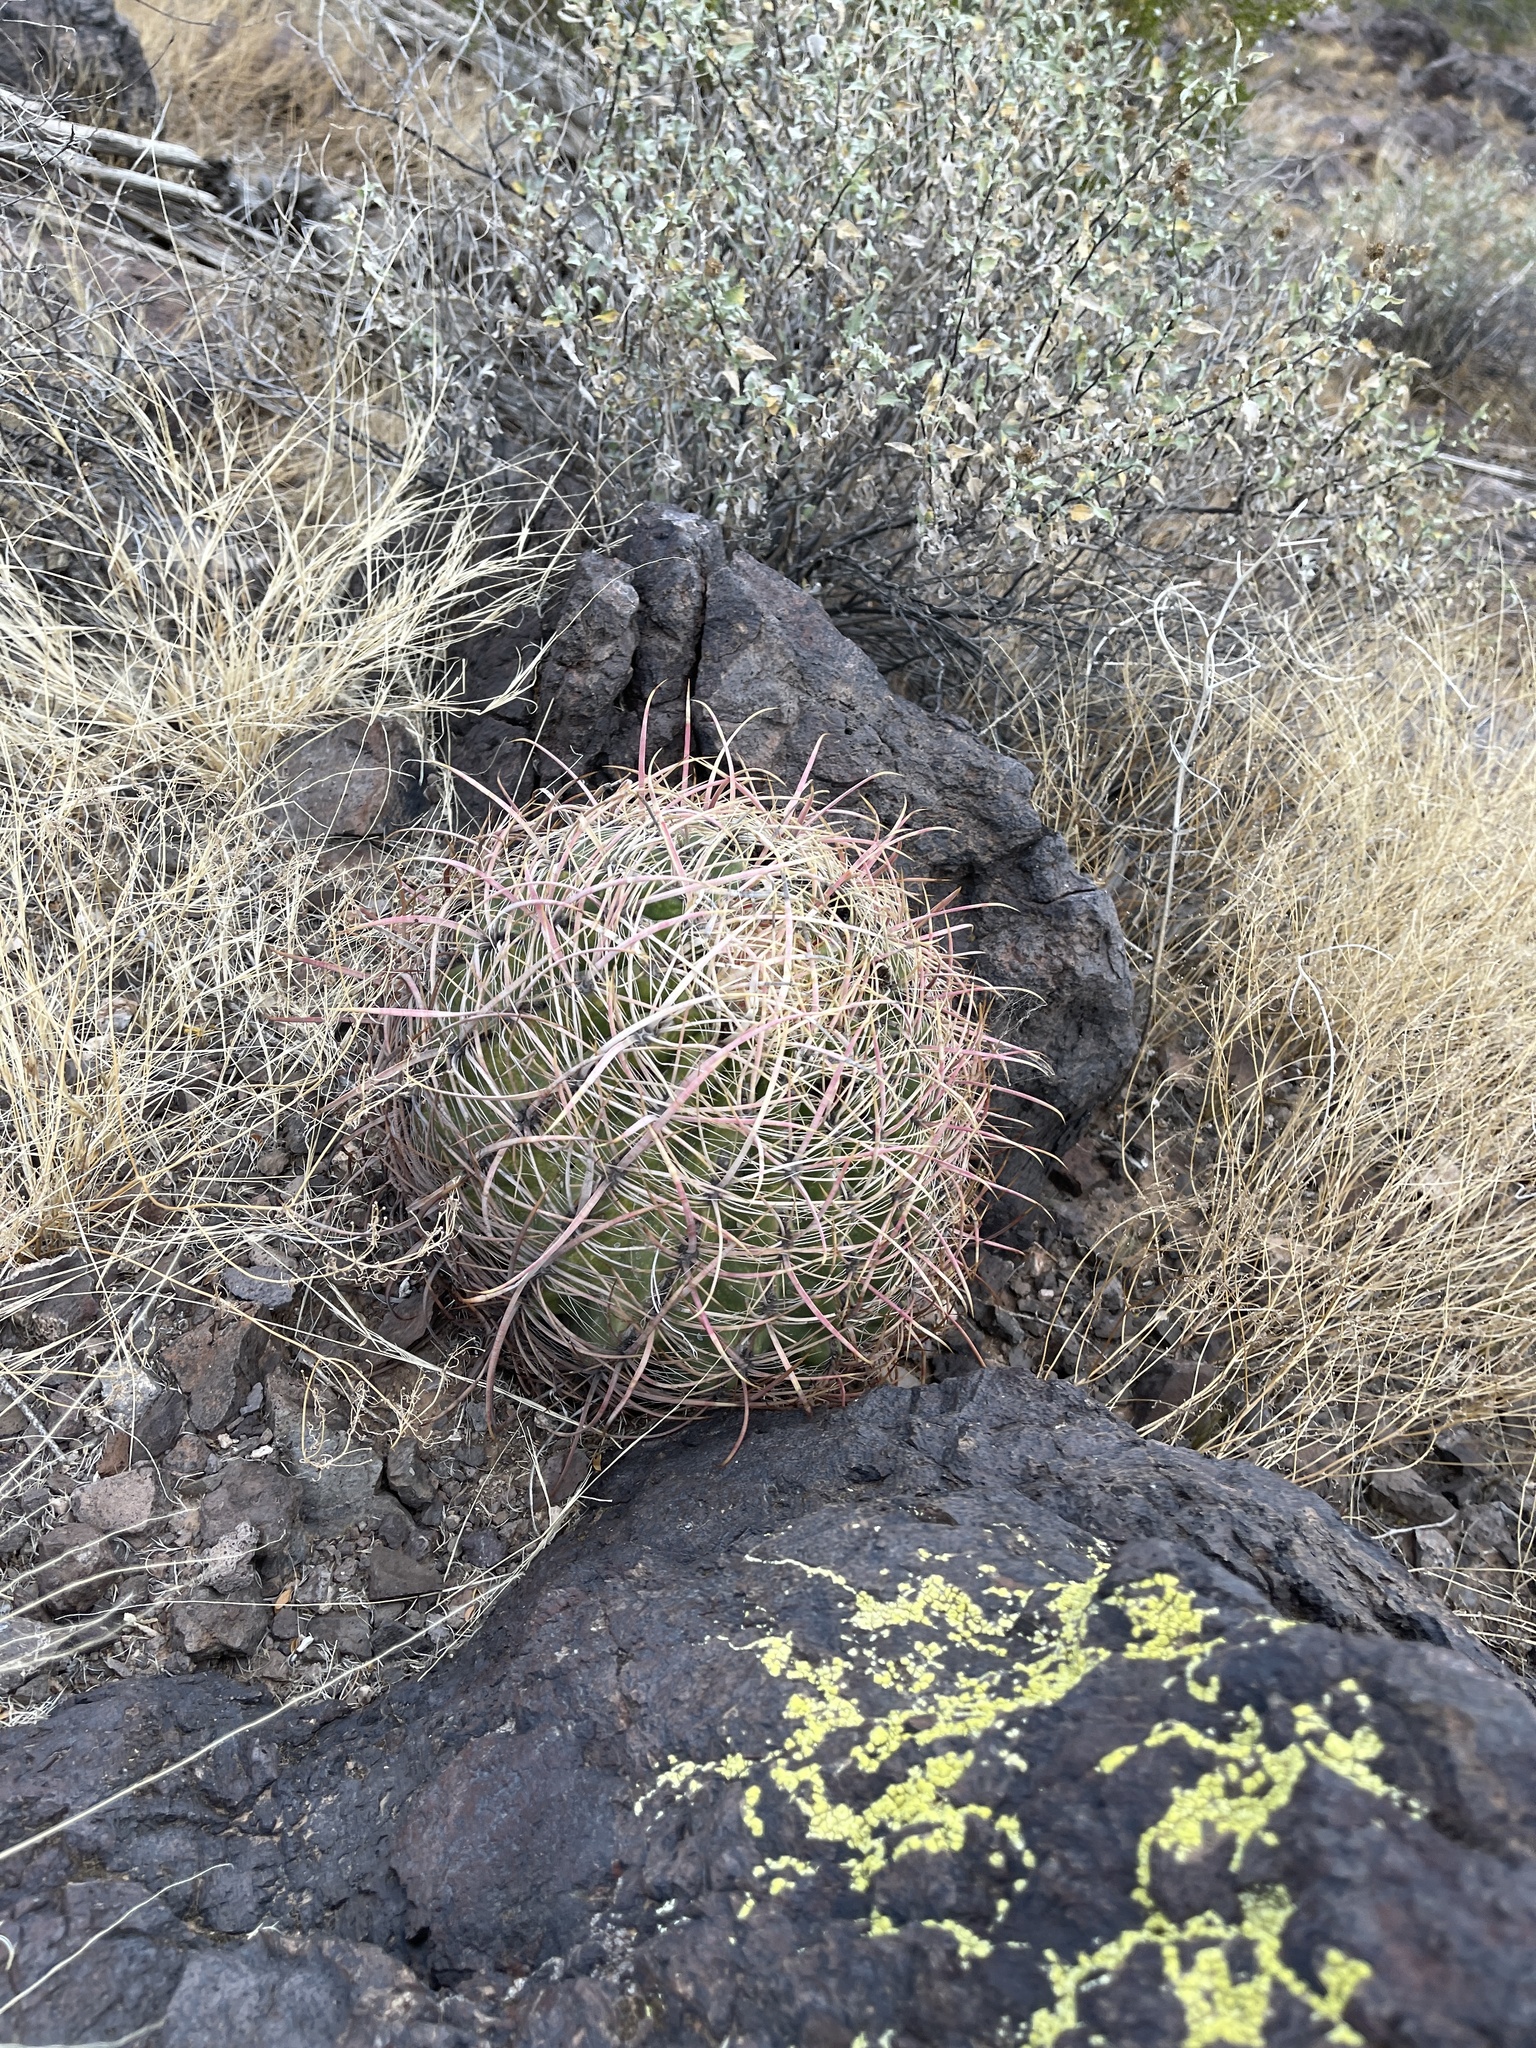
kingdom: Plantae
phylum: Tracheophyta
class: Magnoliopsida
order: Caryophyllales
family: Cactaceae
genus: Ferocactus
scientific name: Ferocactus cylindraceus
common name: California barrel cactus
